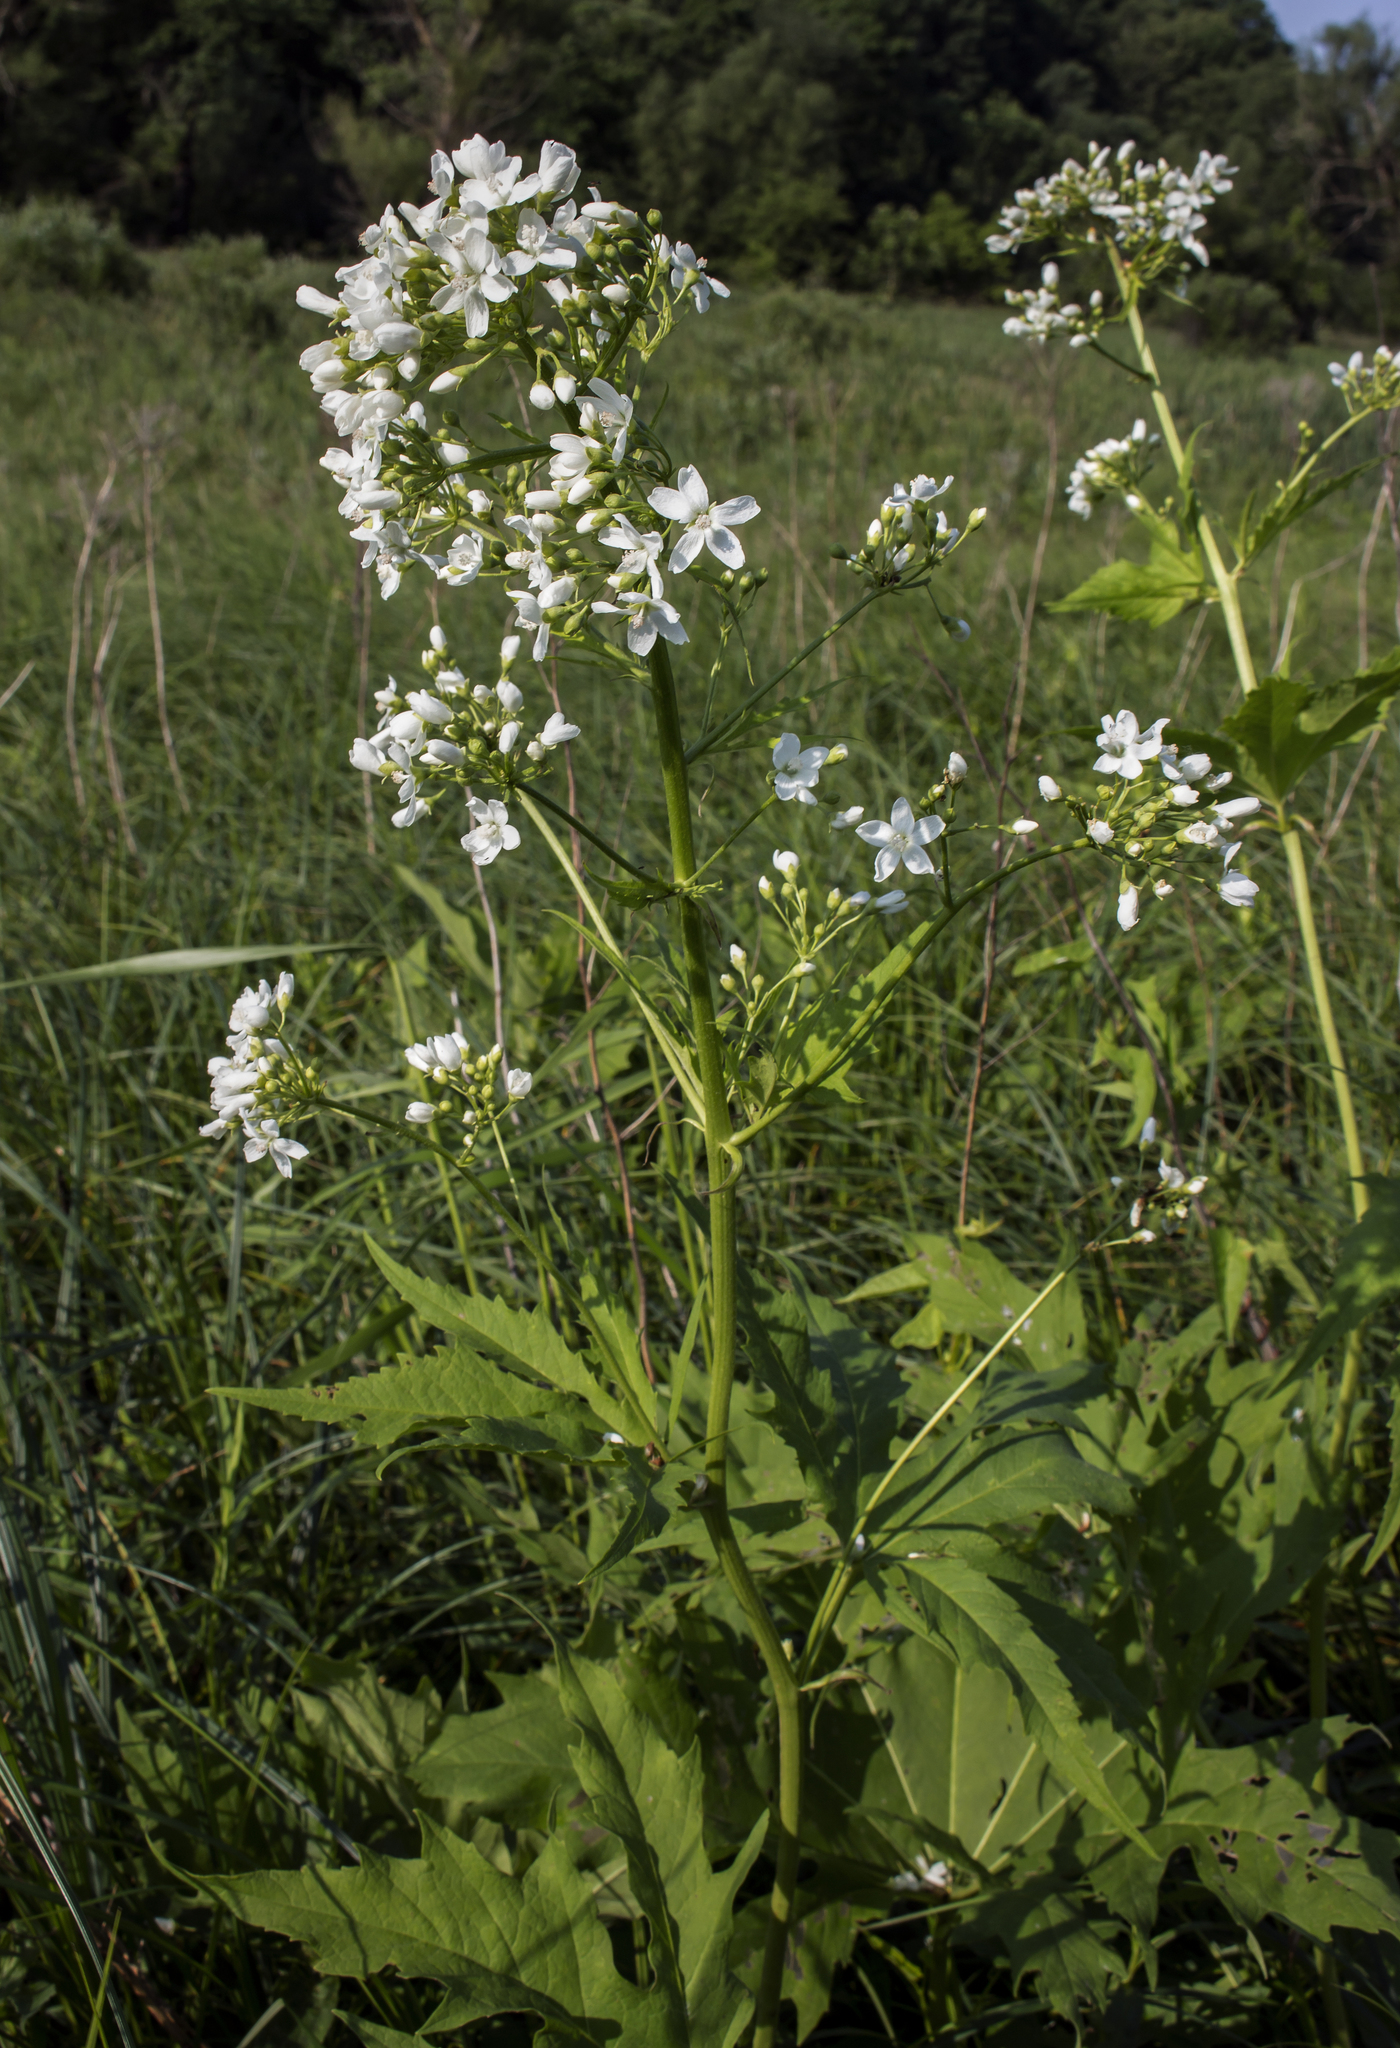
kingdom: Plantae
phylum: Tracheophyta
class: Magnoliopsida
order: Malvales
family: Malvaceae
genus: Napaea
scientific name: Napaea dioica
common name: Glade-mallow
